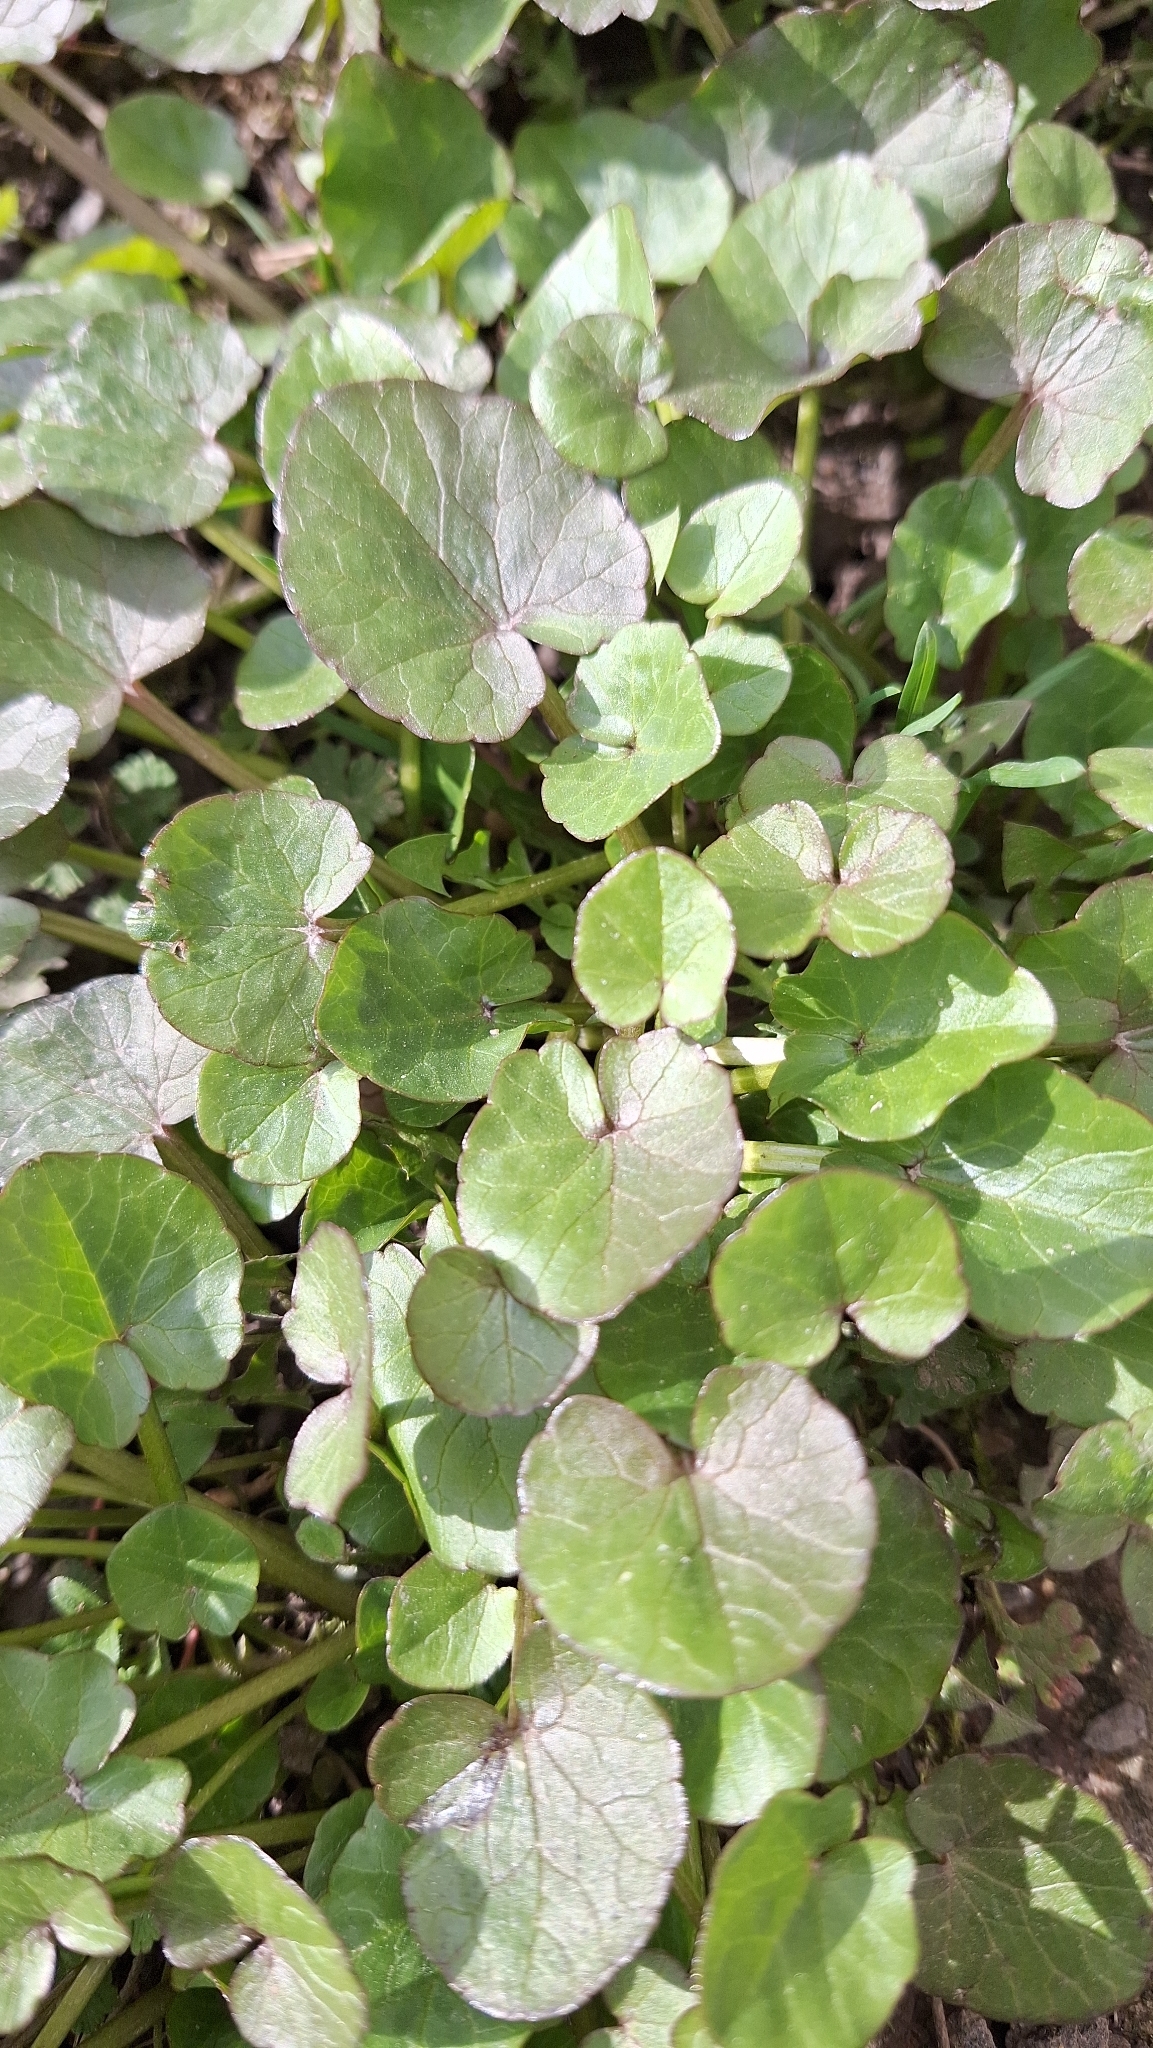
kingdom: Plantae
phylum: Tracheophyta
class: Magnoliopsida
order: Ranunculales
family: Ranunculaceae
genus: Ficaria
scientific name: Ficaria verna
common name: Lesser celandine
